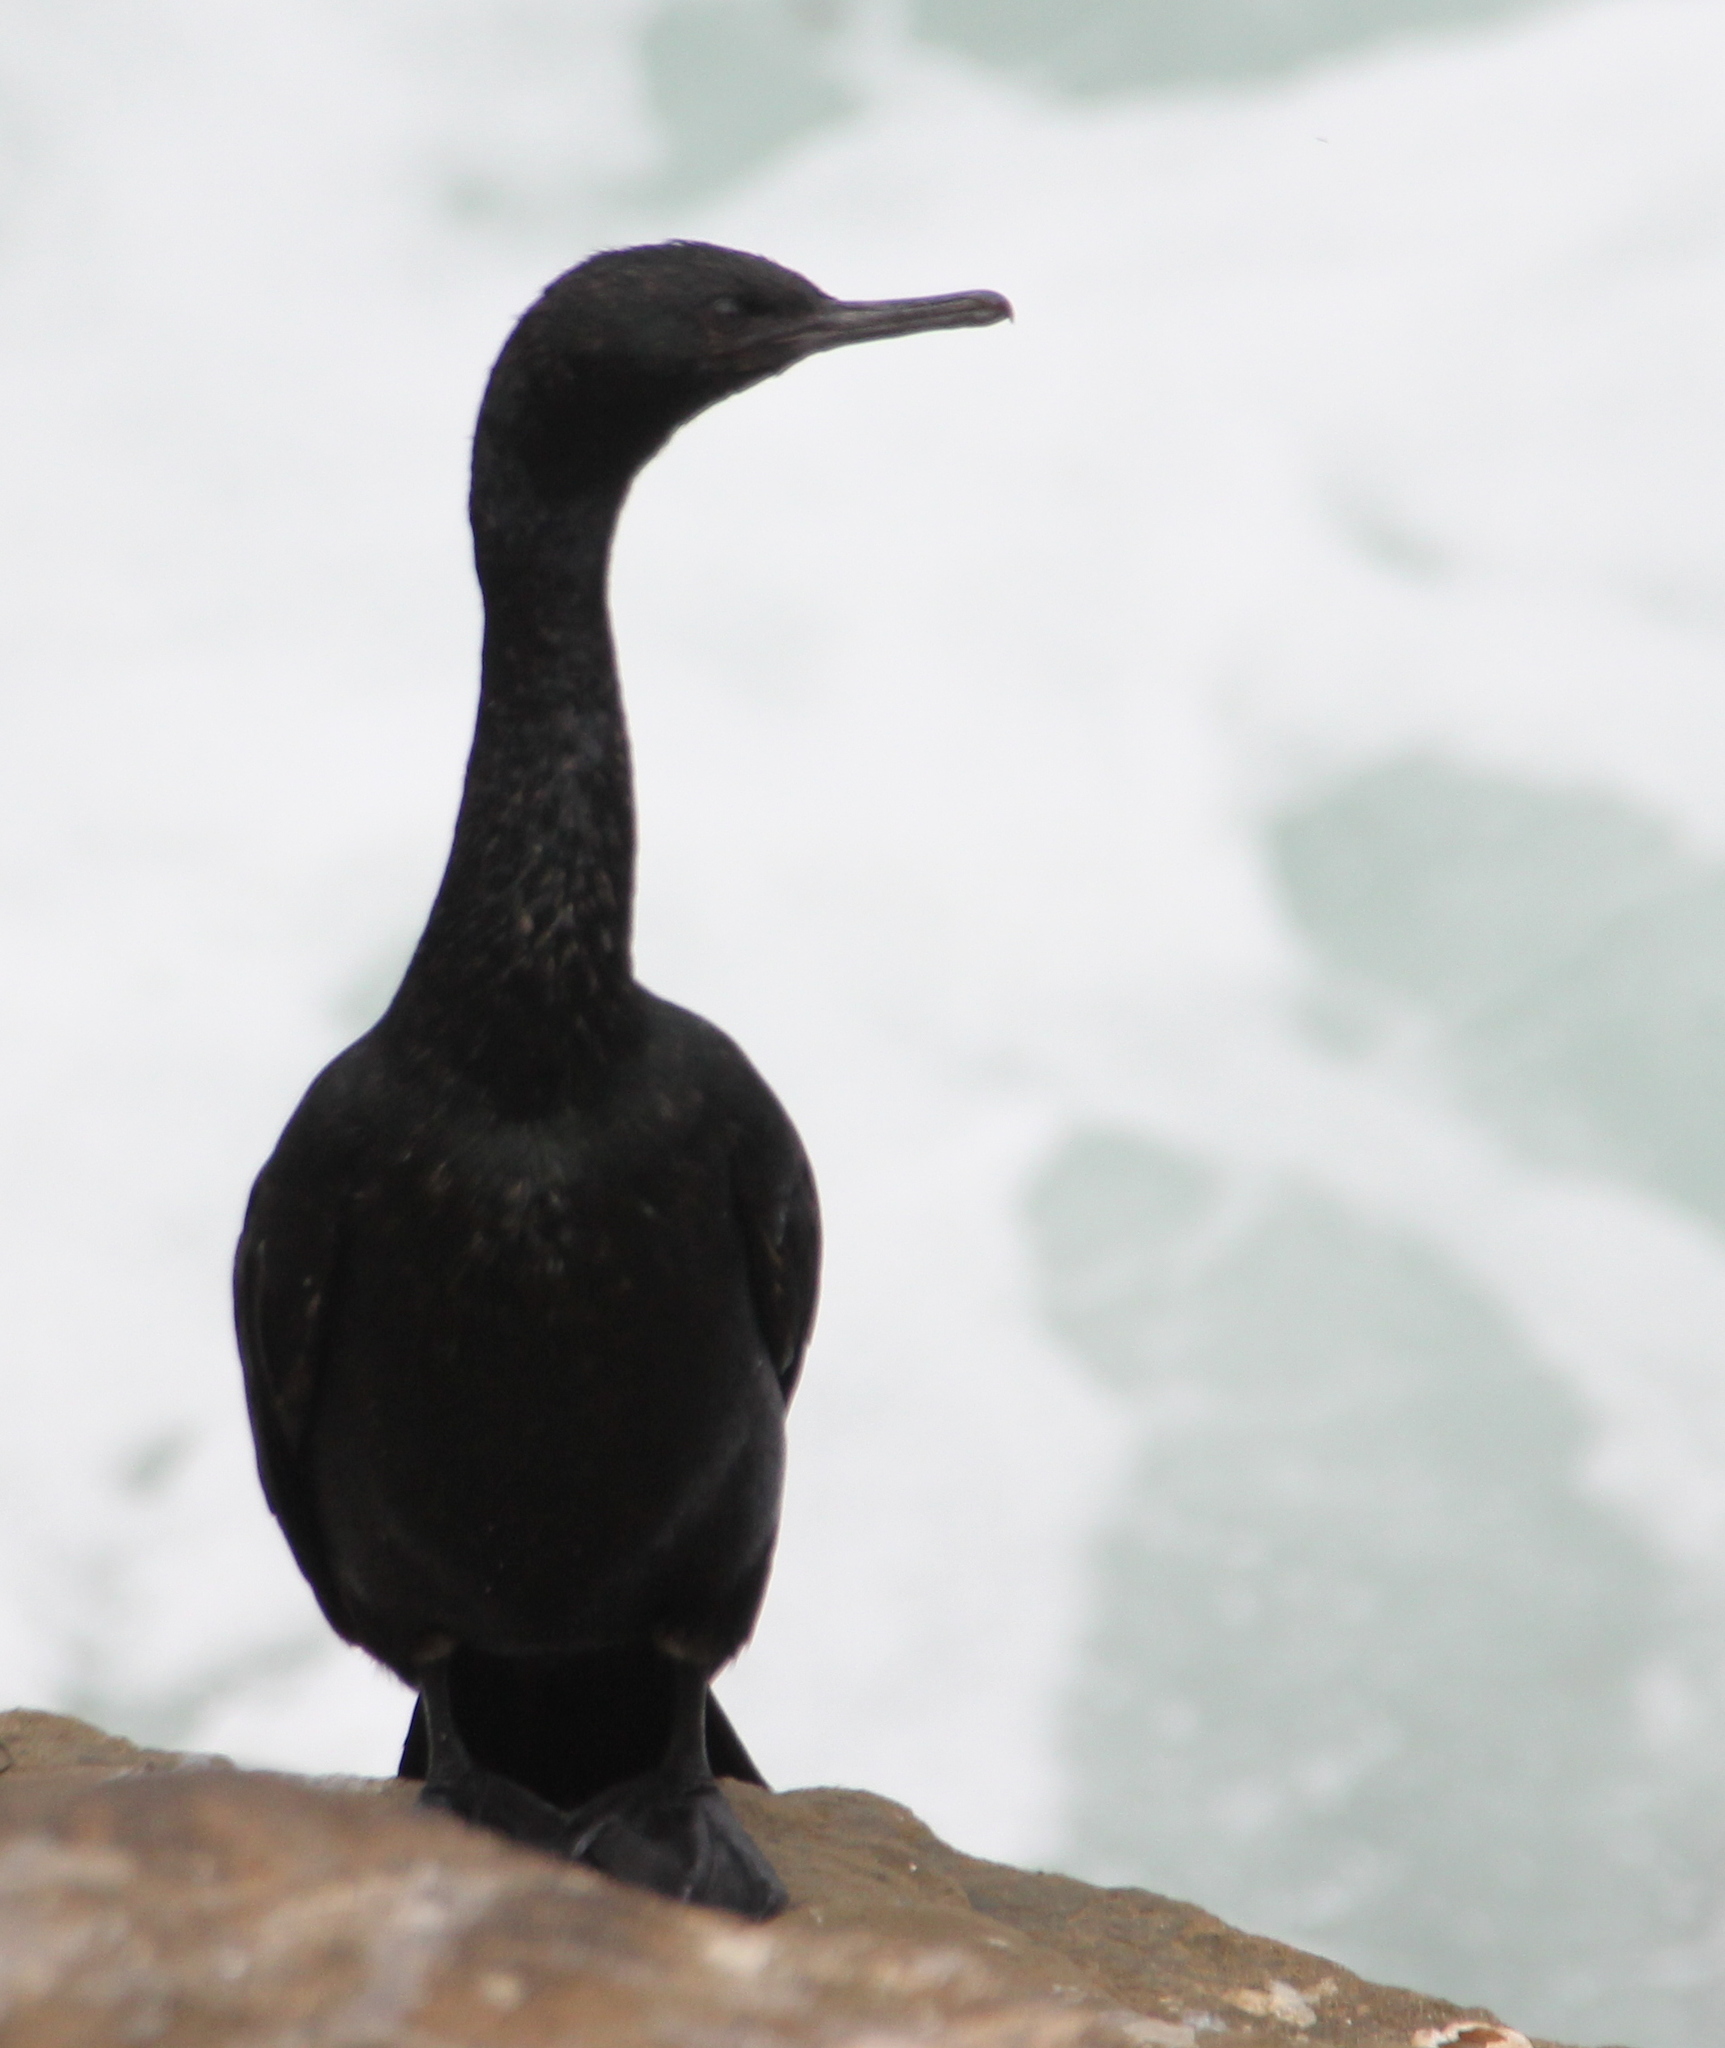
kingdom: Animalia
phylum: Chordata
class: Aves
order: Suliformes
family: Phalacrocoracidae
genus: Phalacrocorax
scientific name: Phalacrocorax pelagicus
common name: Pelagic cormorant
